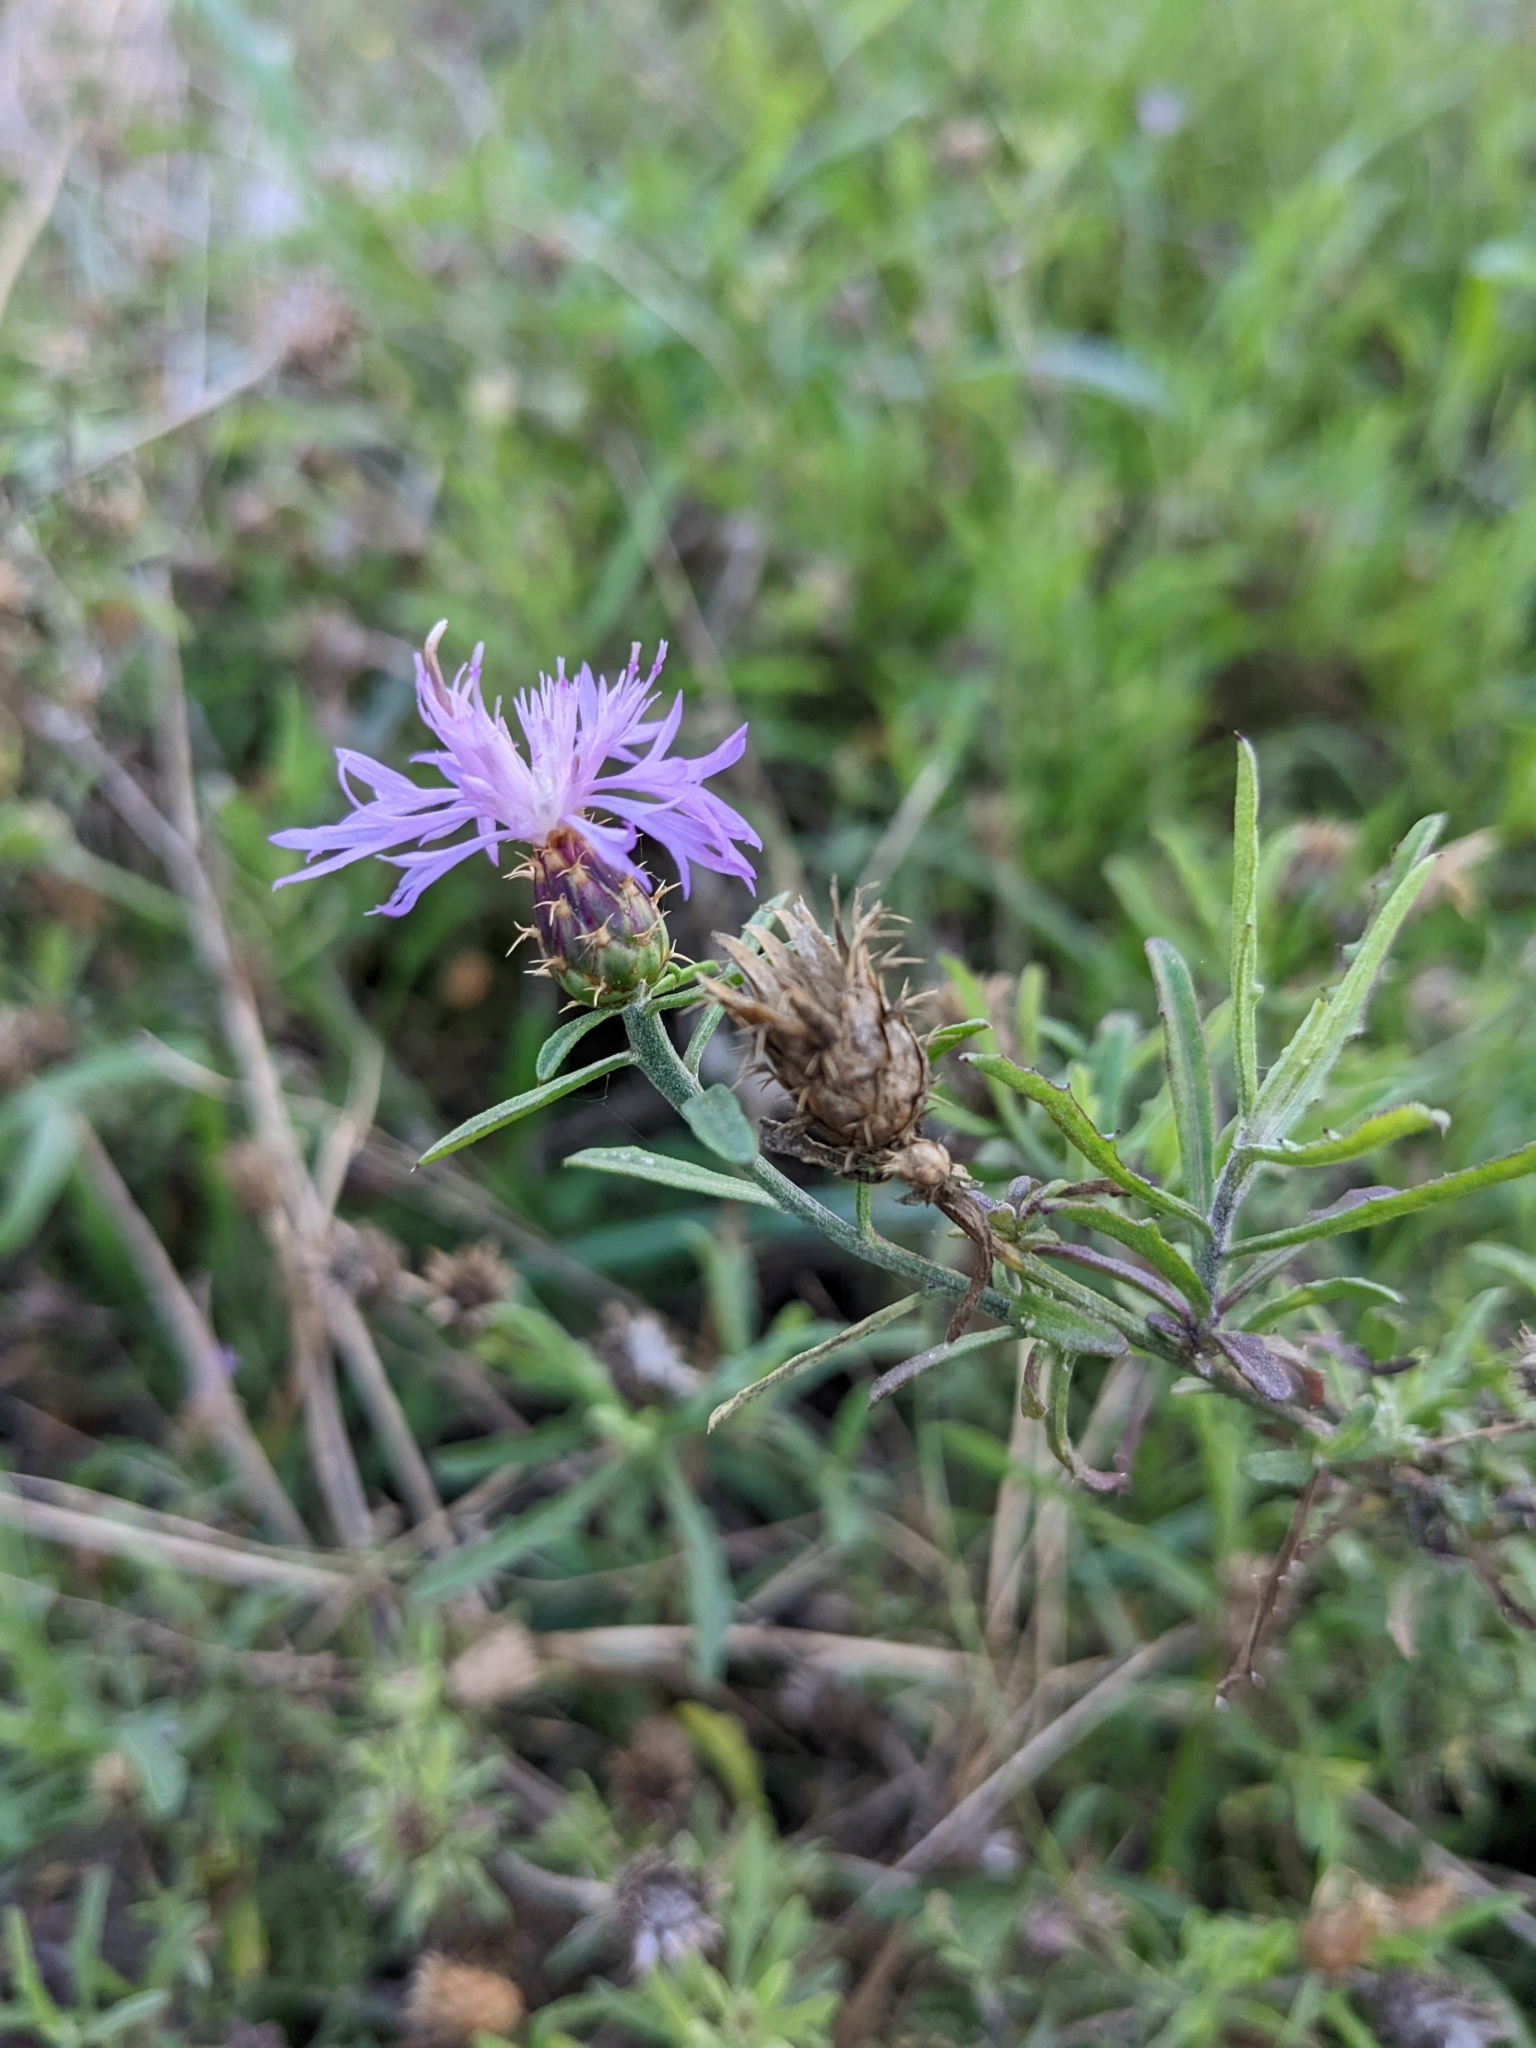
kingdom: Plantae
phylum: Tracheophyta
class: Magnoliopsida
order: Asterales
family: Asteraceae
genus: Centaurea
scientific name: Centaurea aspera
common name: Rough star-thistle
